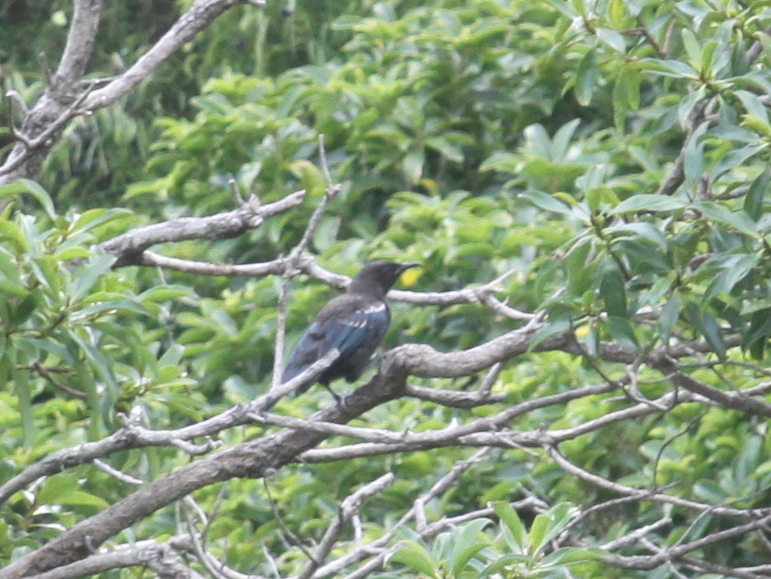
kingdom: Animalia
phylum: Chordata
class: Aves
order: Passeriformes
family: Meliphagidae
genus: Prosthemadera
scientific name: Prosthemadera novaeseelandiae
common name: Tui
